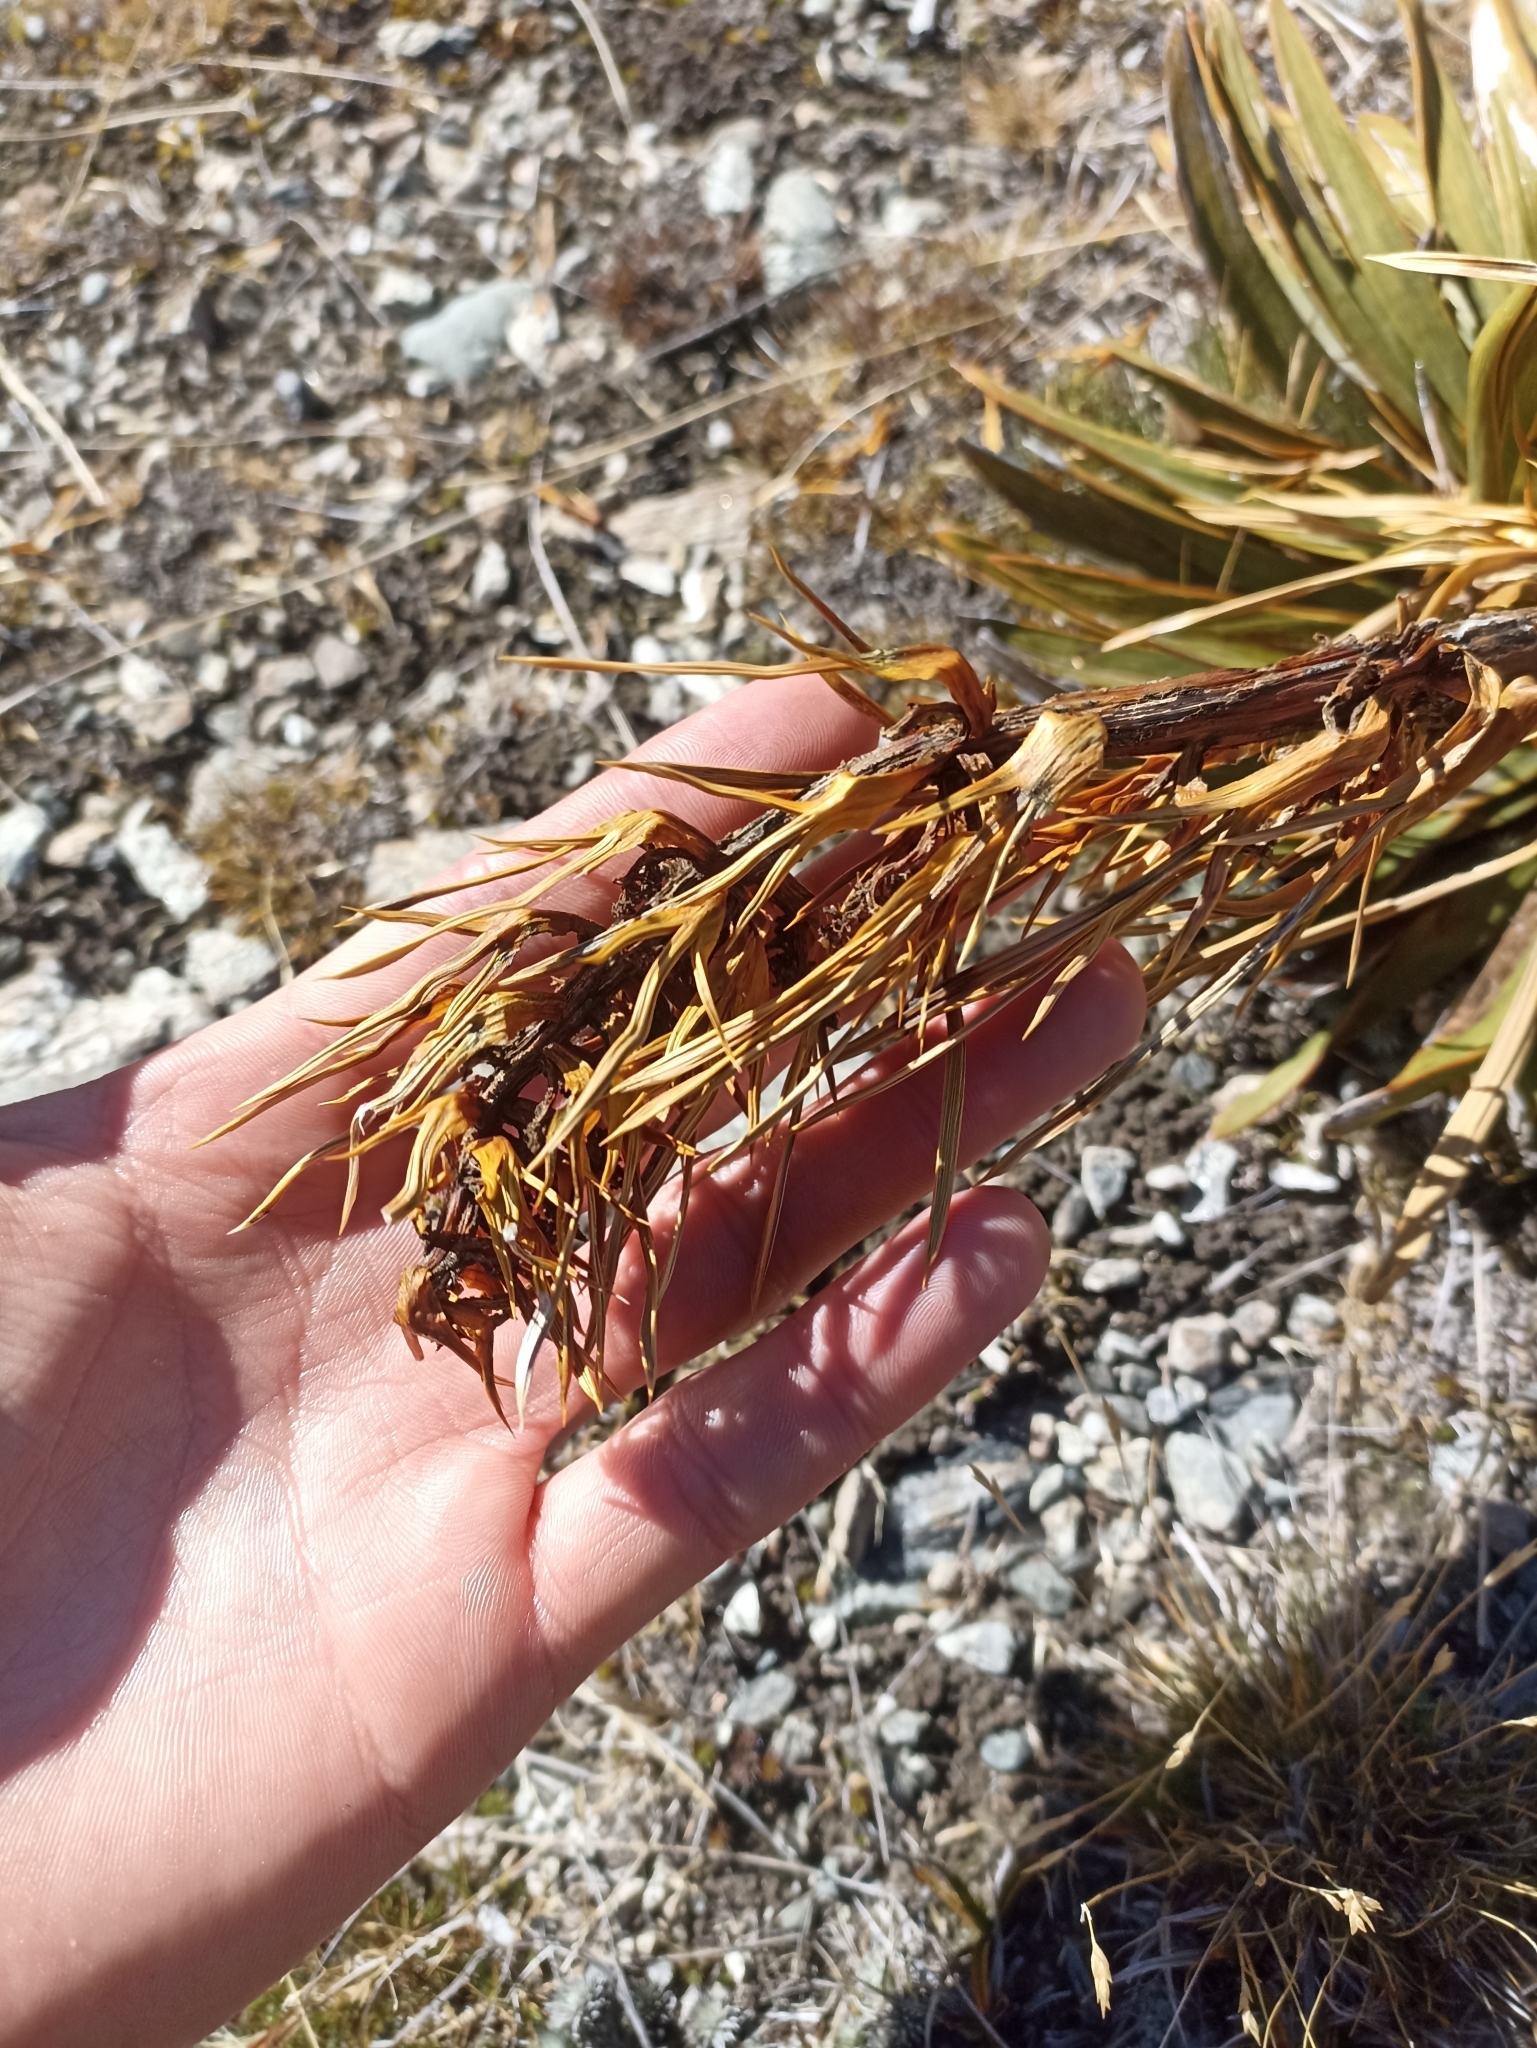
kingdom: Plantae
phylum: Tracheophyta
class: Magnoliopsida
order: Apiales
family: Apiaceae
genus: Aciphylla
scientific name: Aciphylla kirkii
